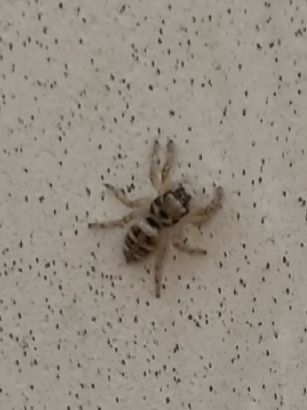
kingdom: Animalia
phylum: Arthropoda
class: Arachnida
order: Araneae
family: Salticidae
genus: Salticus
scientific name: Salticus scenicus
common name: Zebra jumper
